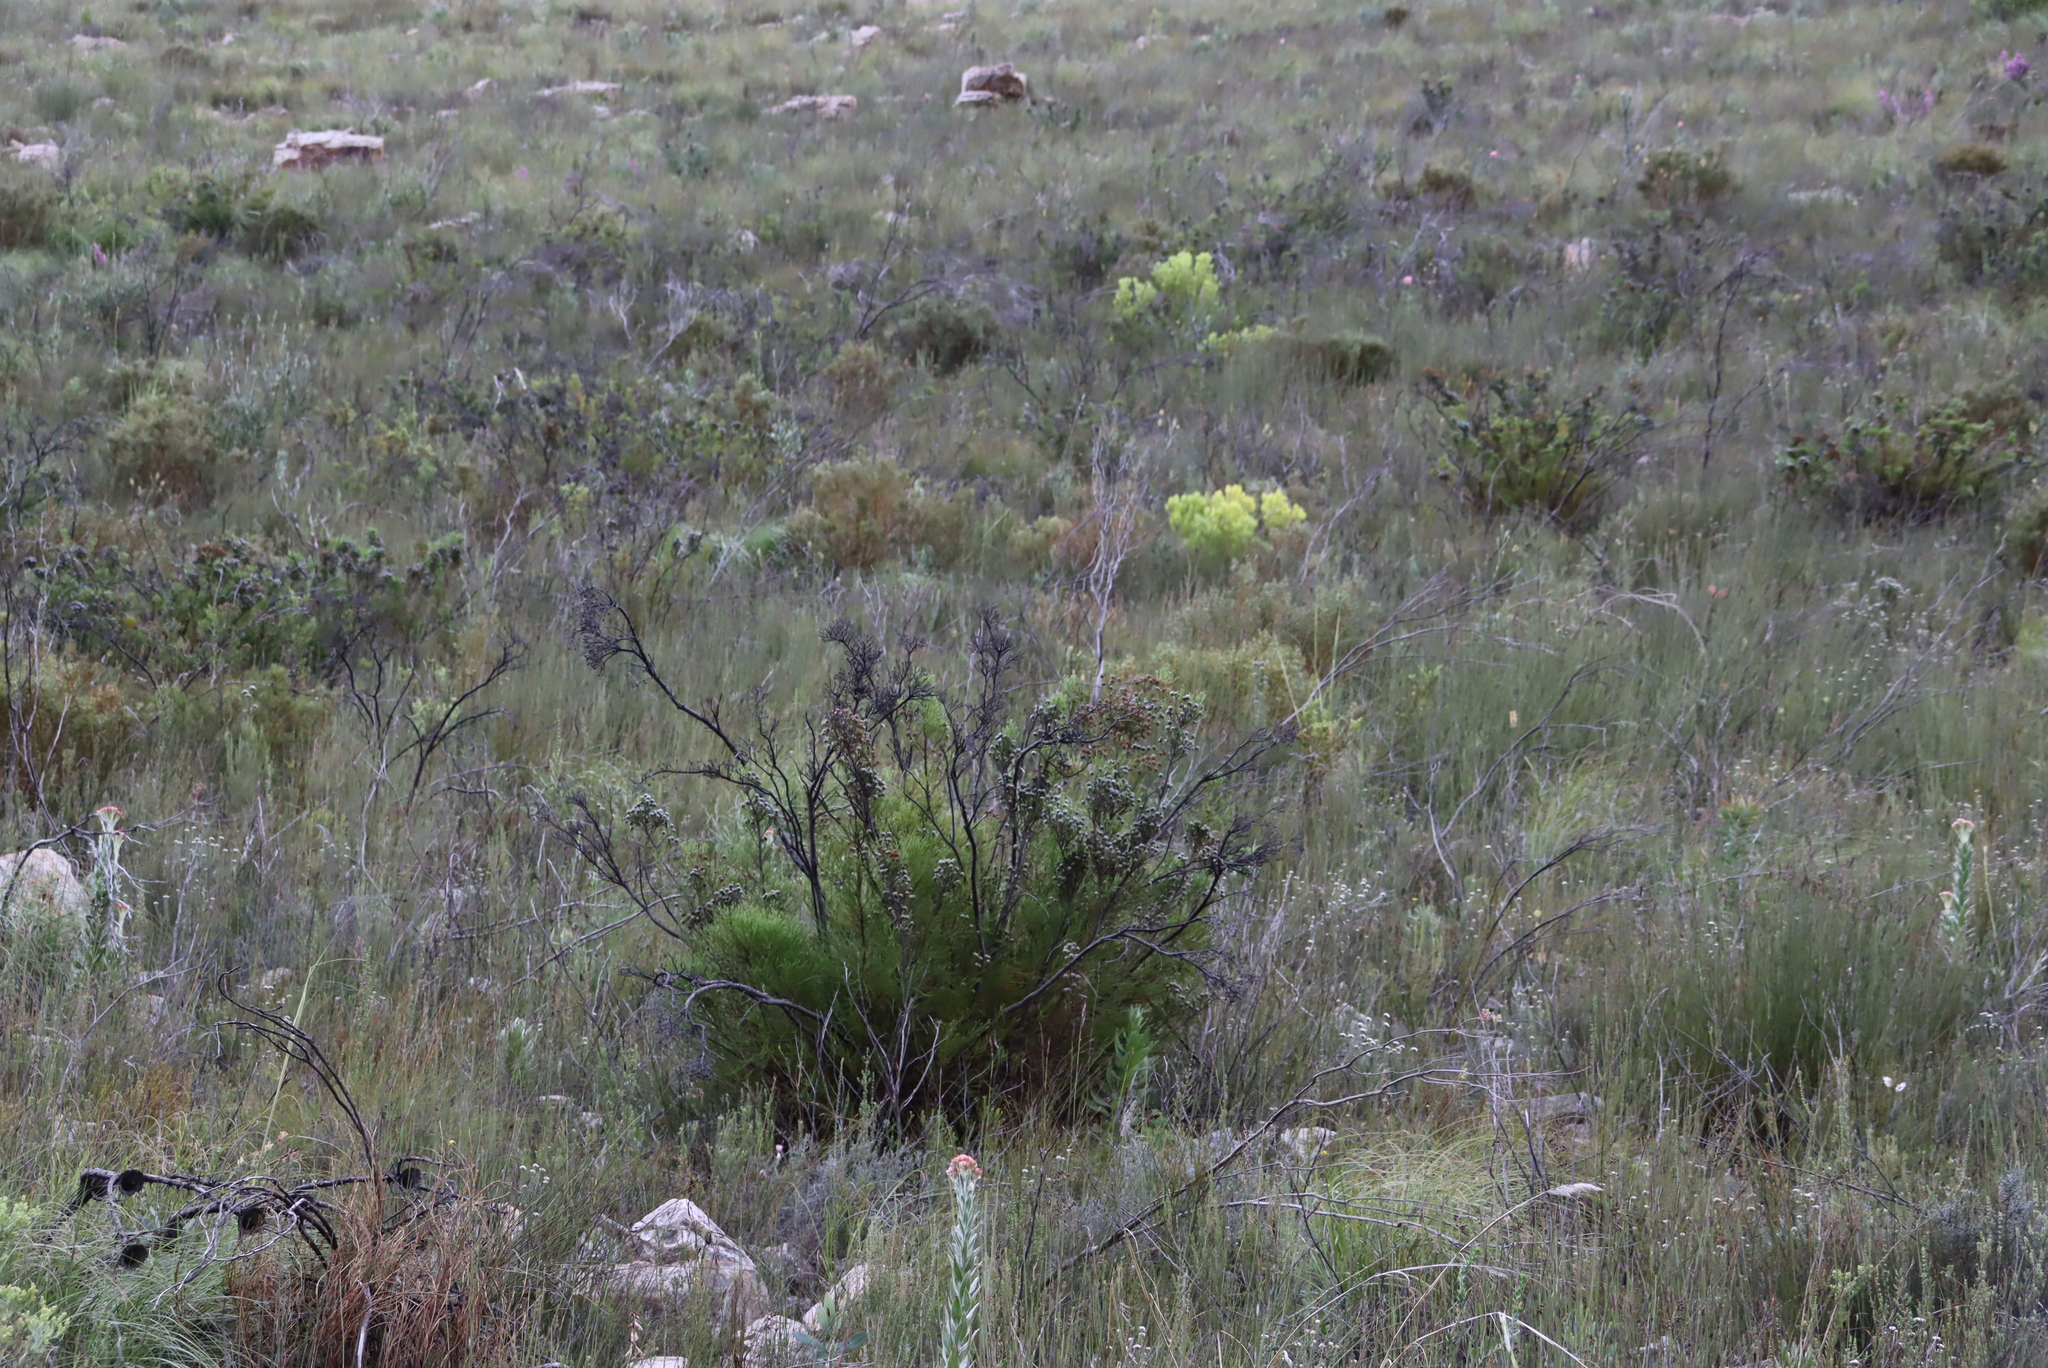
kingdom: Plantae
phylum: Tracheophyta
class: Magnoliopsida
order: Proteales
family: Proteaceae
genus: Leucadendron
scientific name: Leucadendron salignum
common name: Common sunshine conebush
